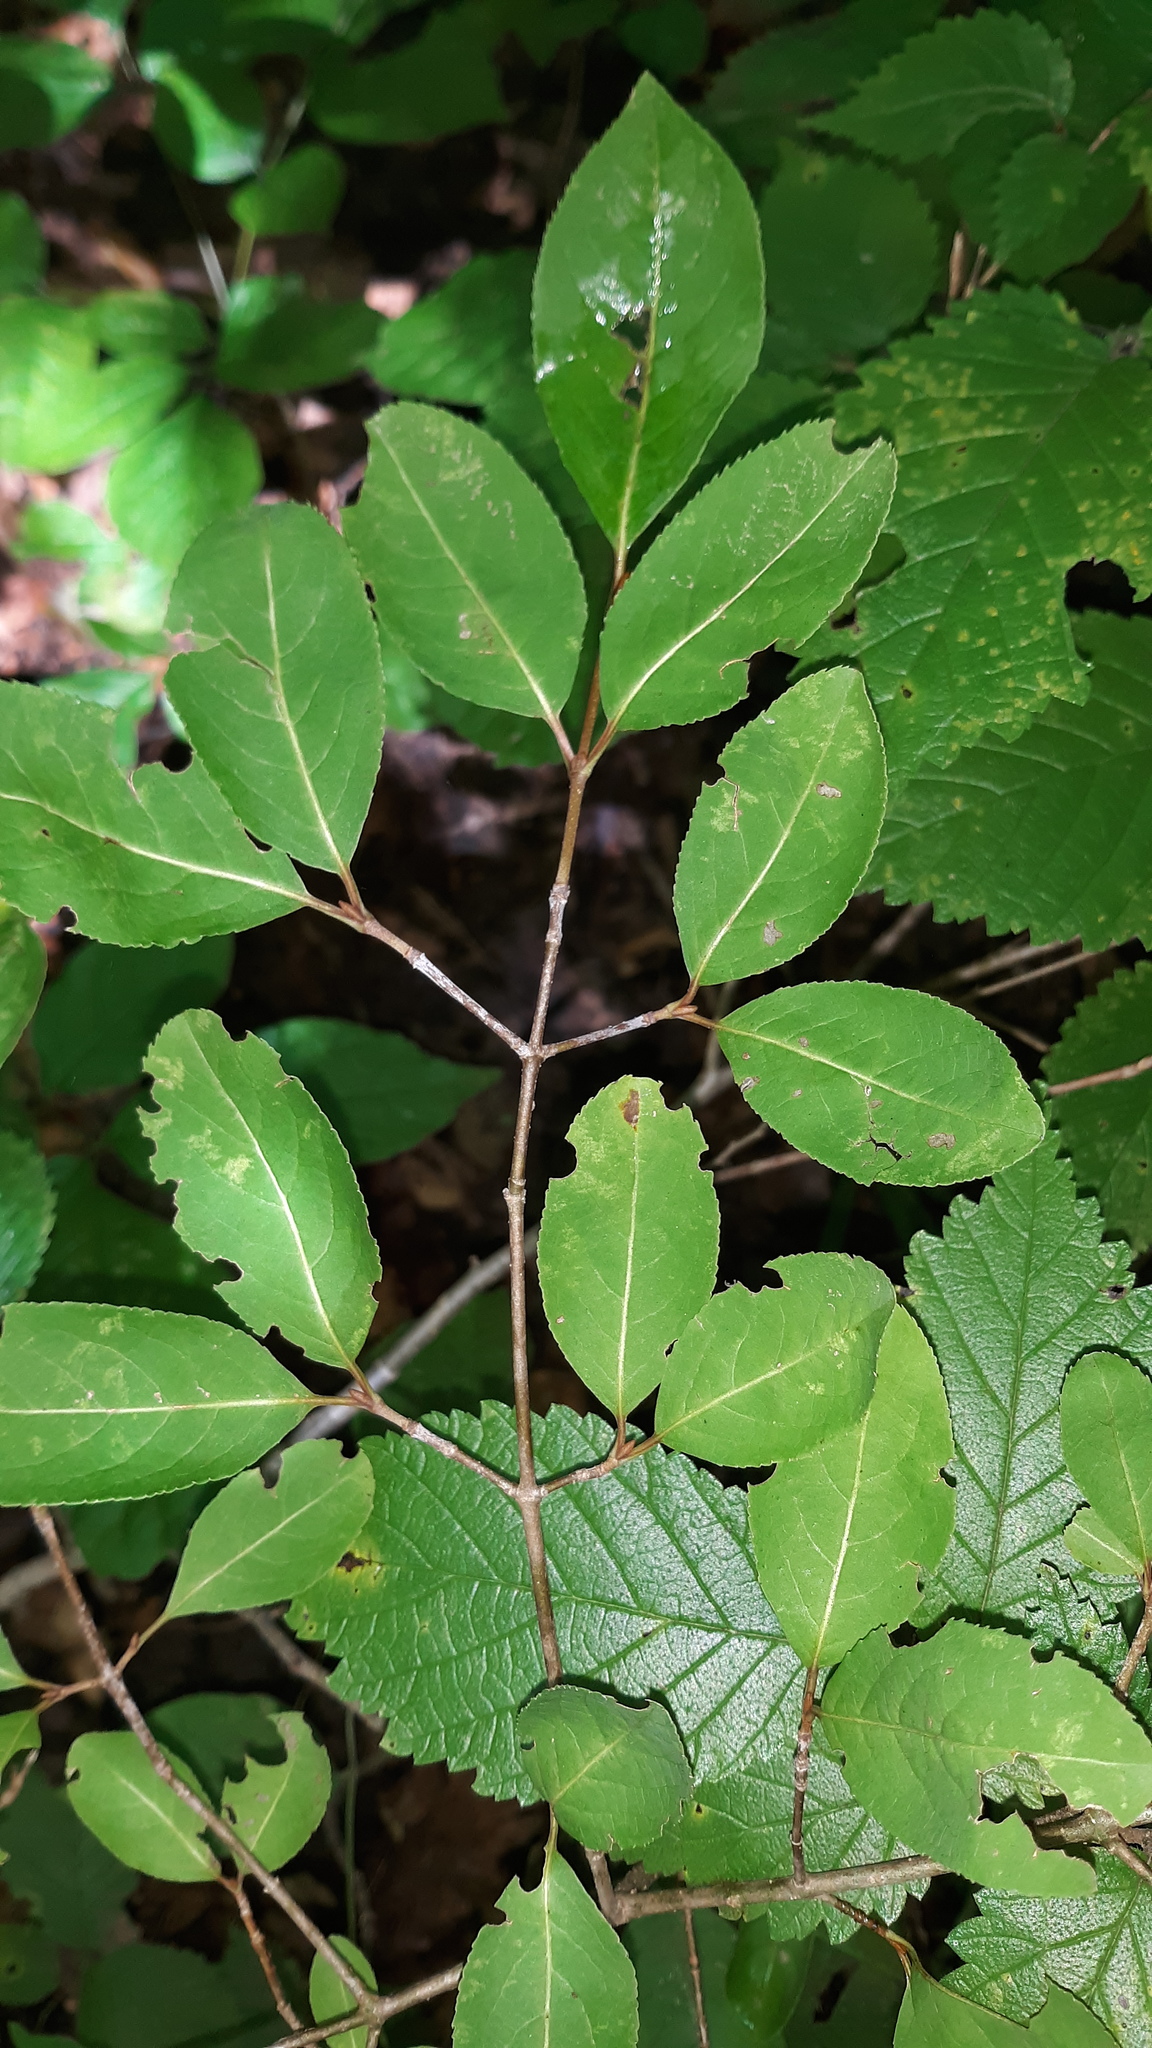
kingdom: Plantae
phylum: Tracheophyta
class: Magnoliopsida
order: Dipsacales
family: Viburnaceae
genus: Viburnum
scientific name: Viburnum prunifolium
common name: Black haw
